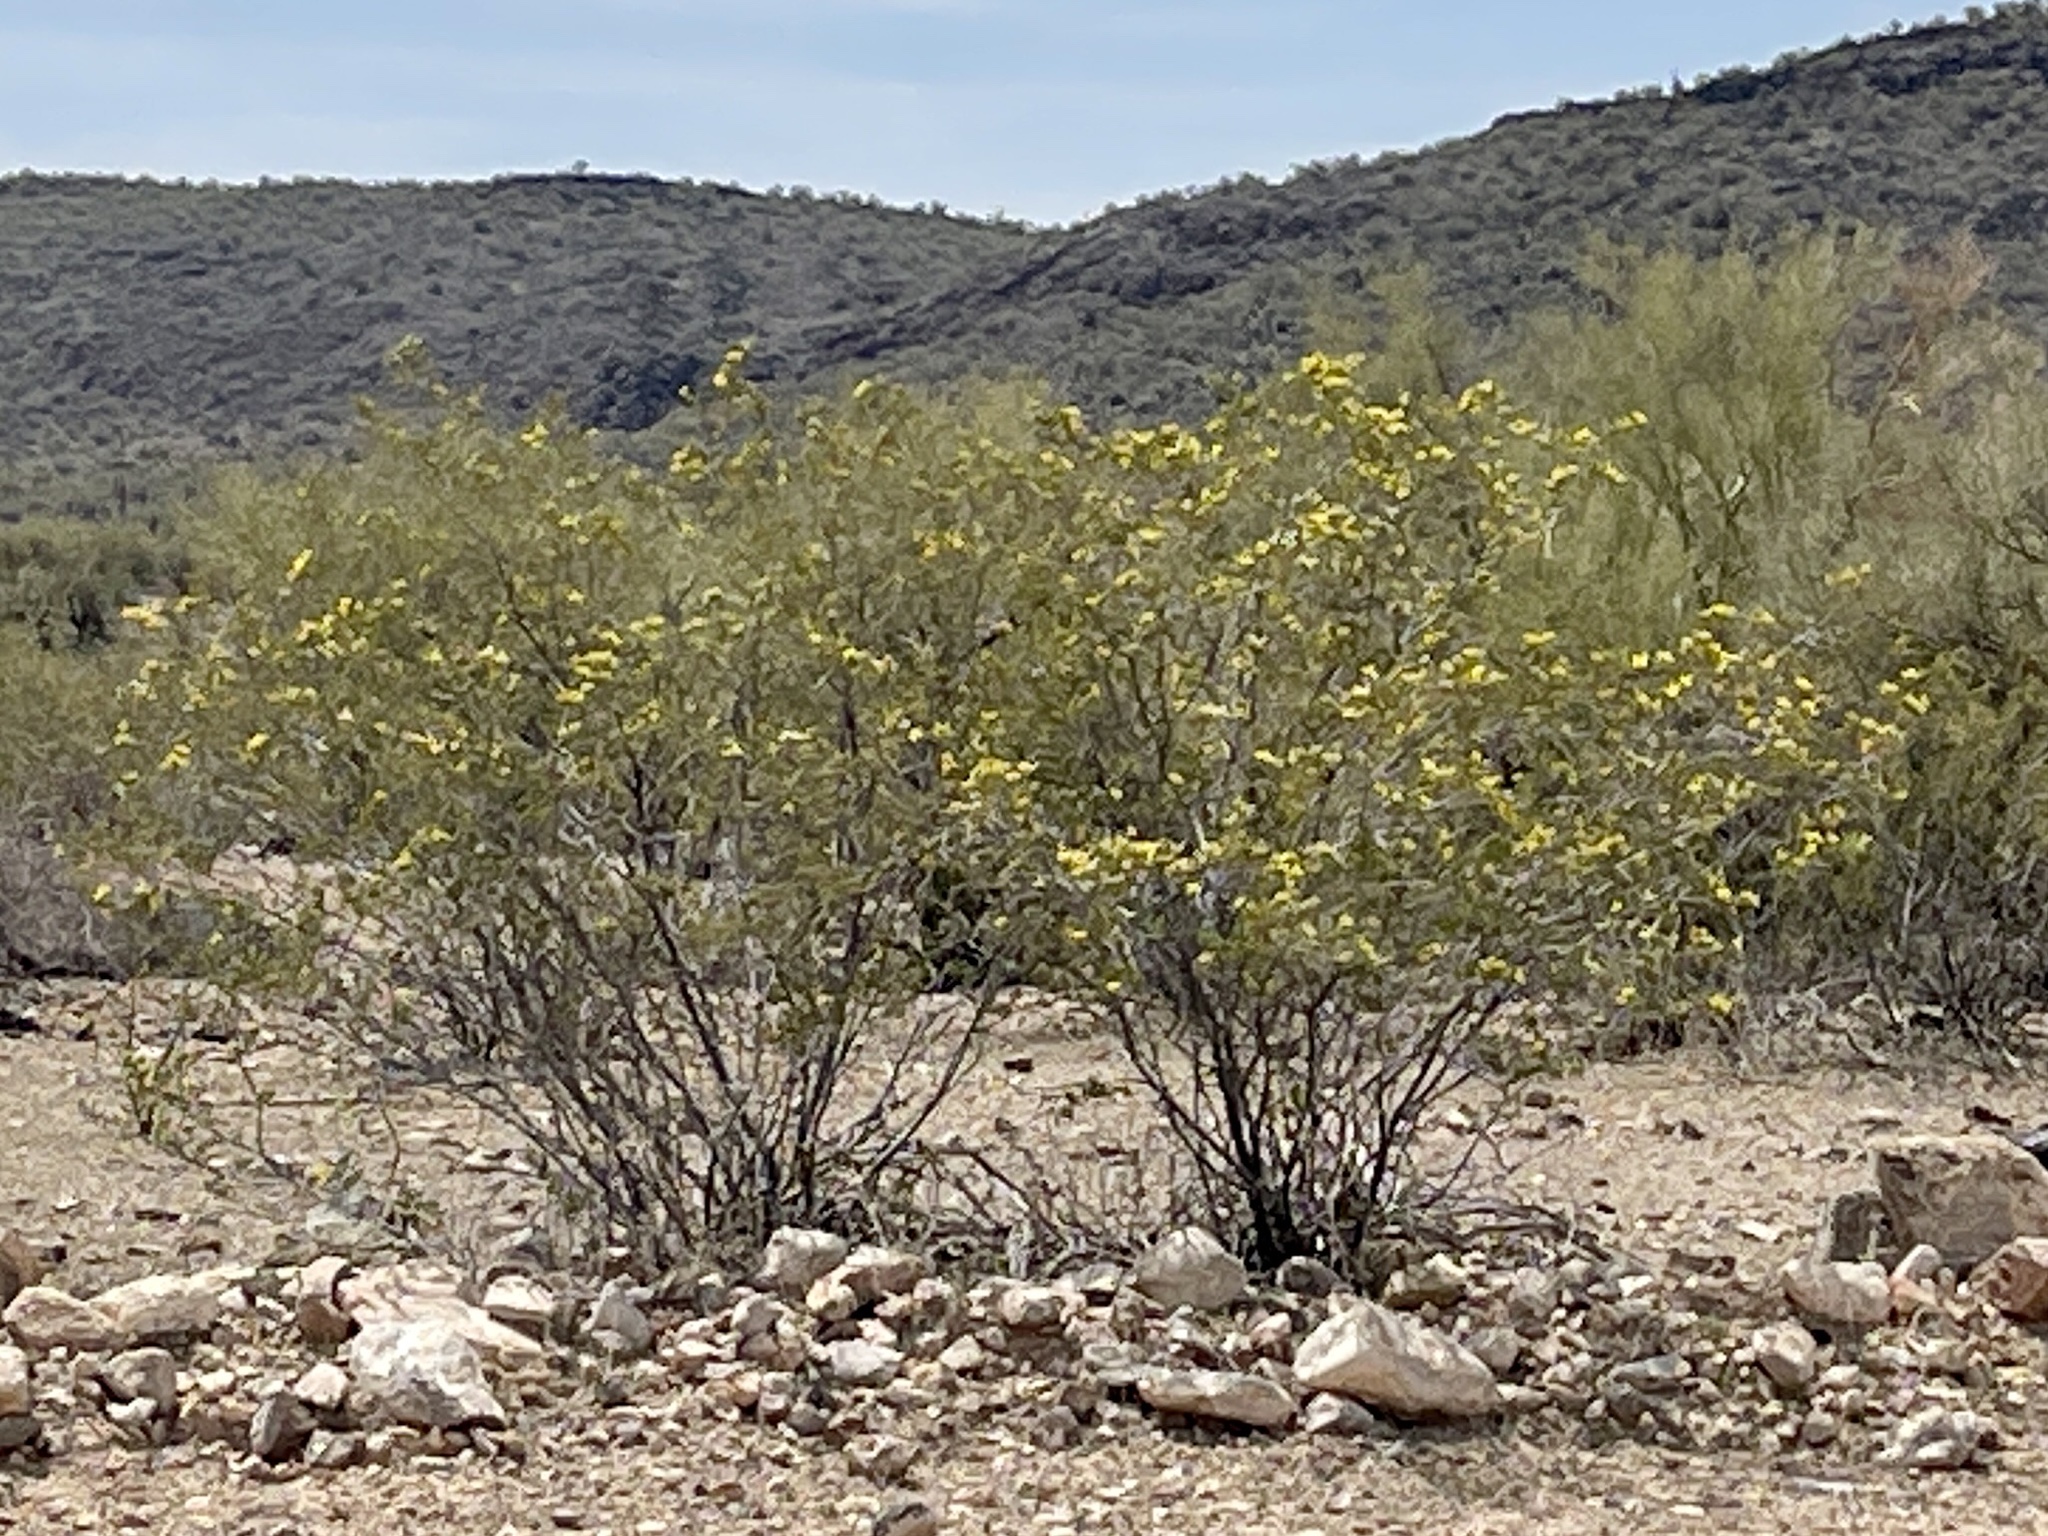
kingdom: Plantae
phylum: Tracheophyta
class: Magnoliopsida
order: Zygophyllales
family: Zygophyllaceae
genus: Larrea
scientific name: Larrea tridentata
